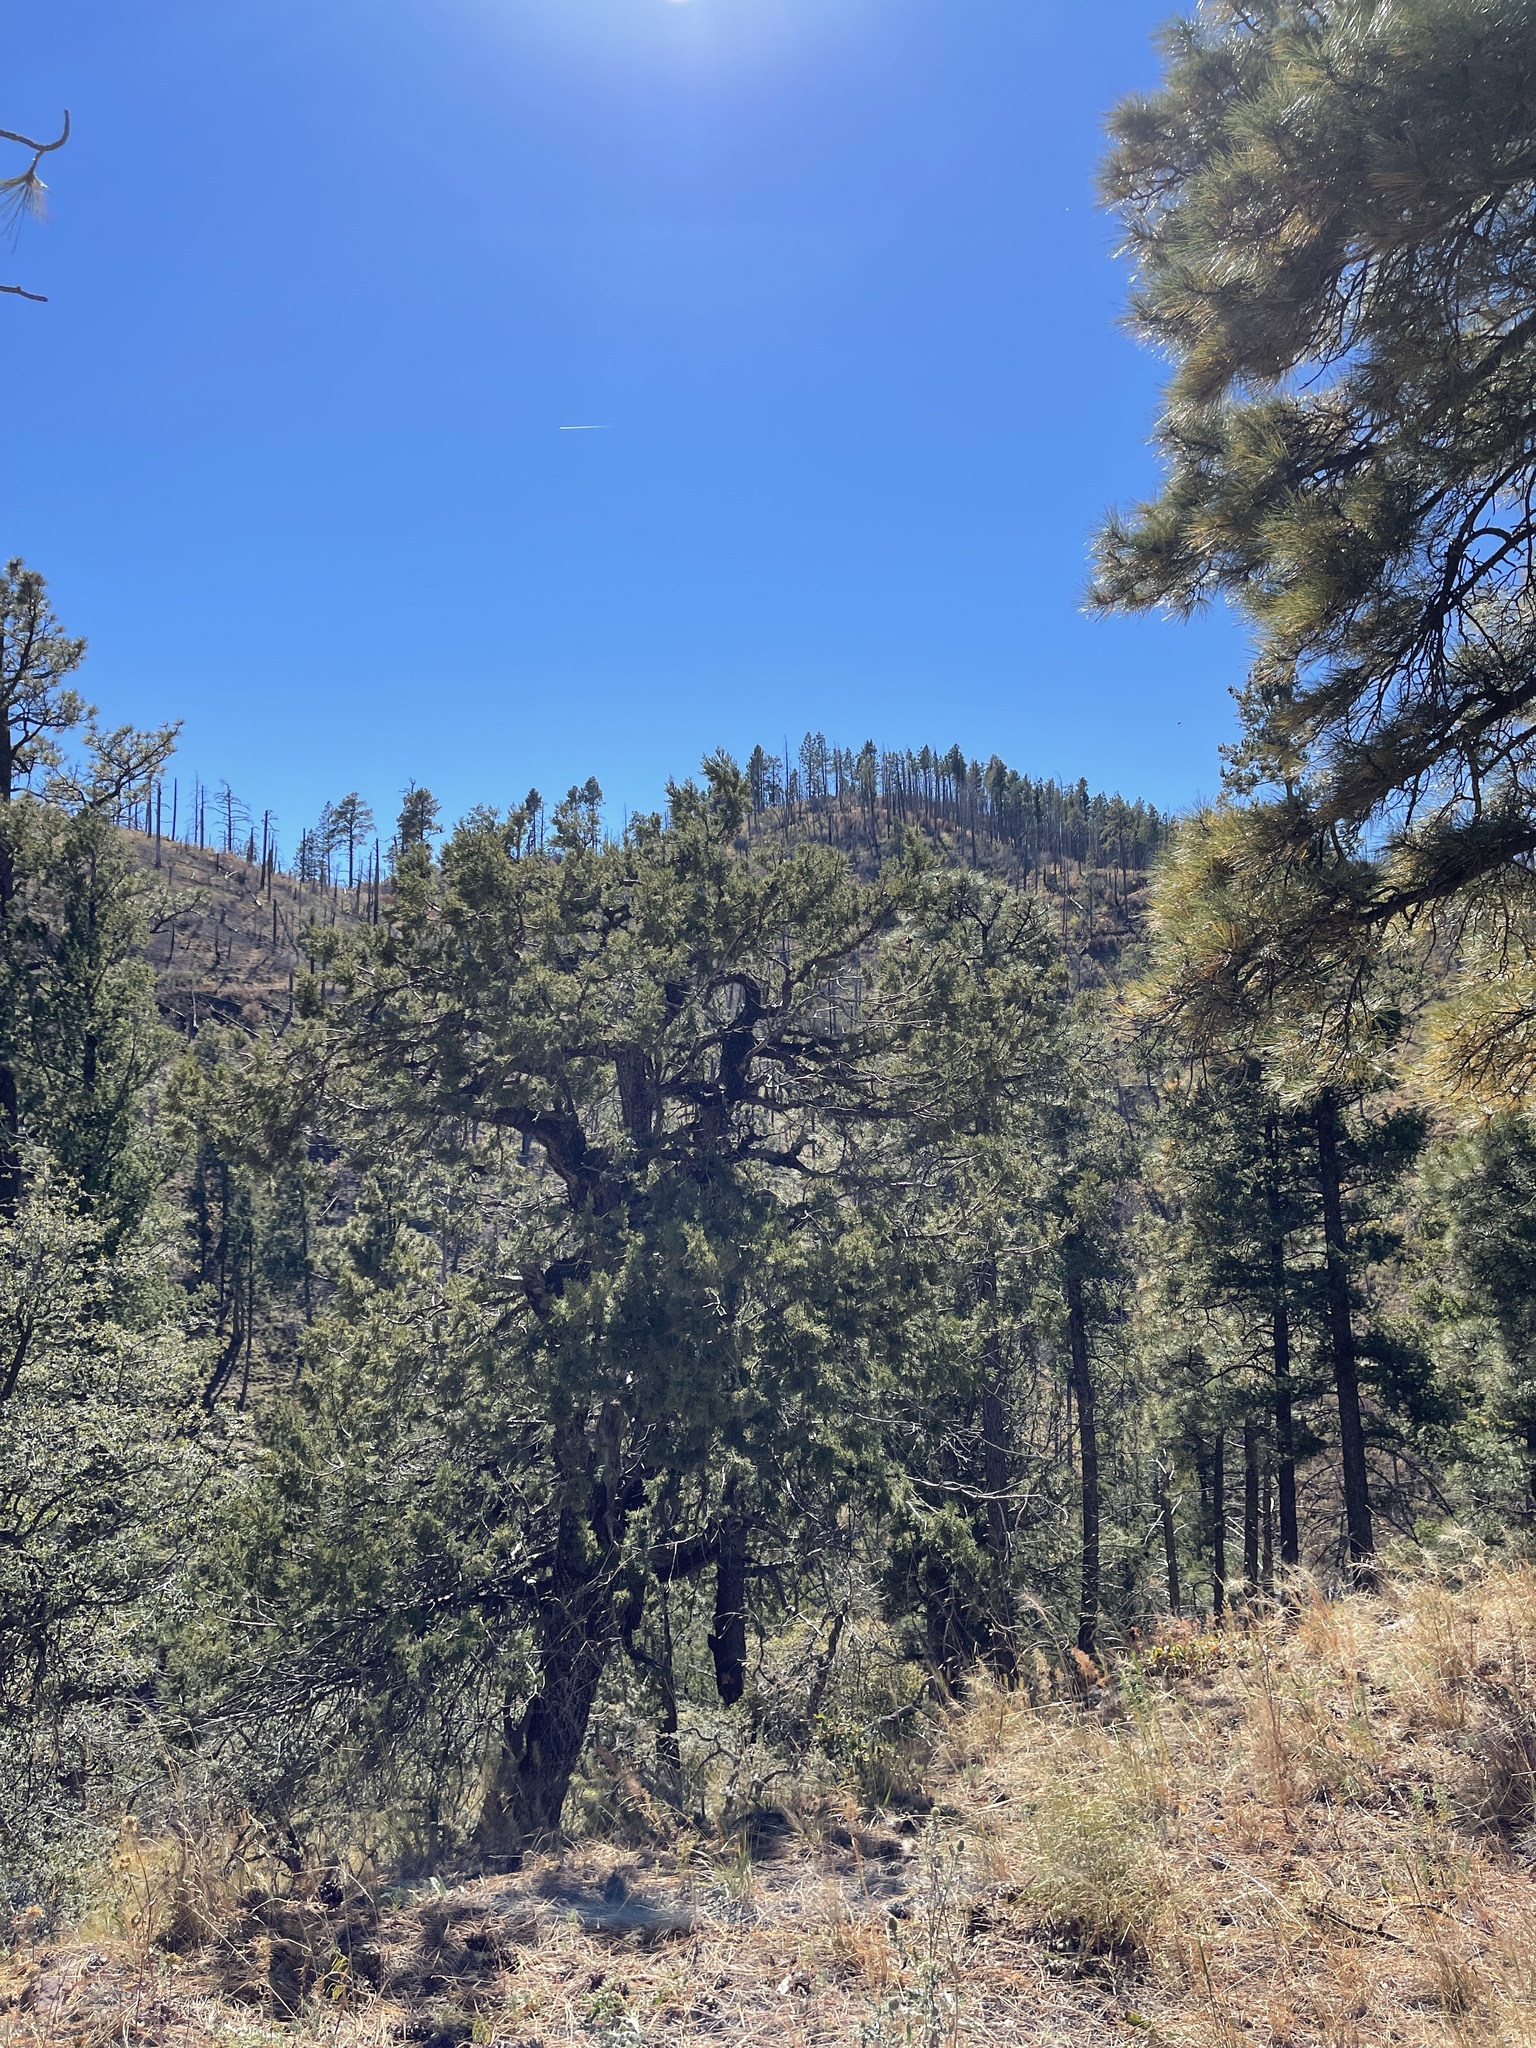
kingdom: Plantae
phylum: Tracheophyta
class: Pinopsida
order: Pinales
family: Cupressaceae
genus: Juniperus
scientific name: Juniperus deppeana
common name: Alligator juniper
